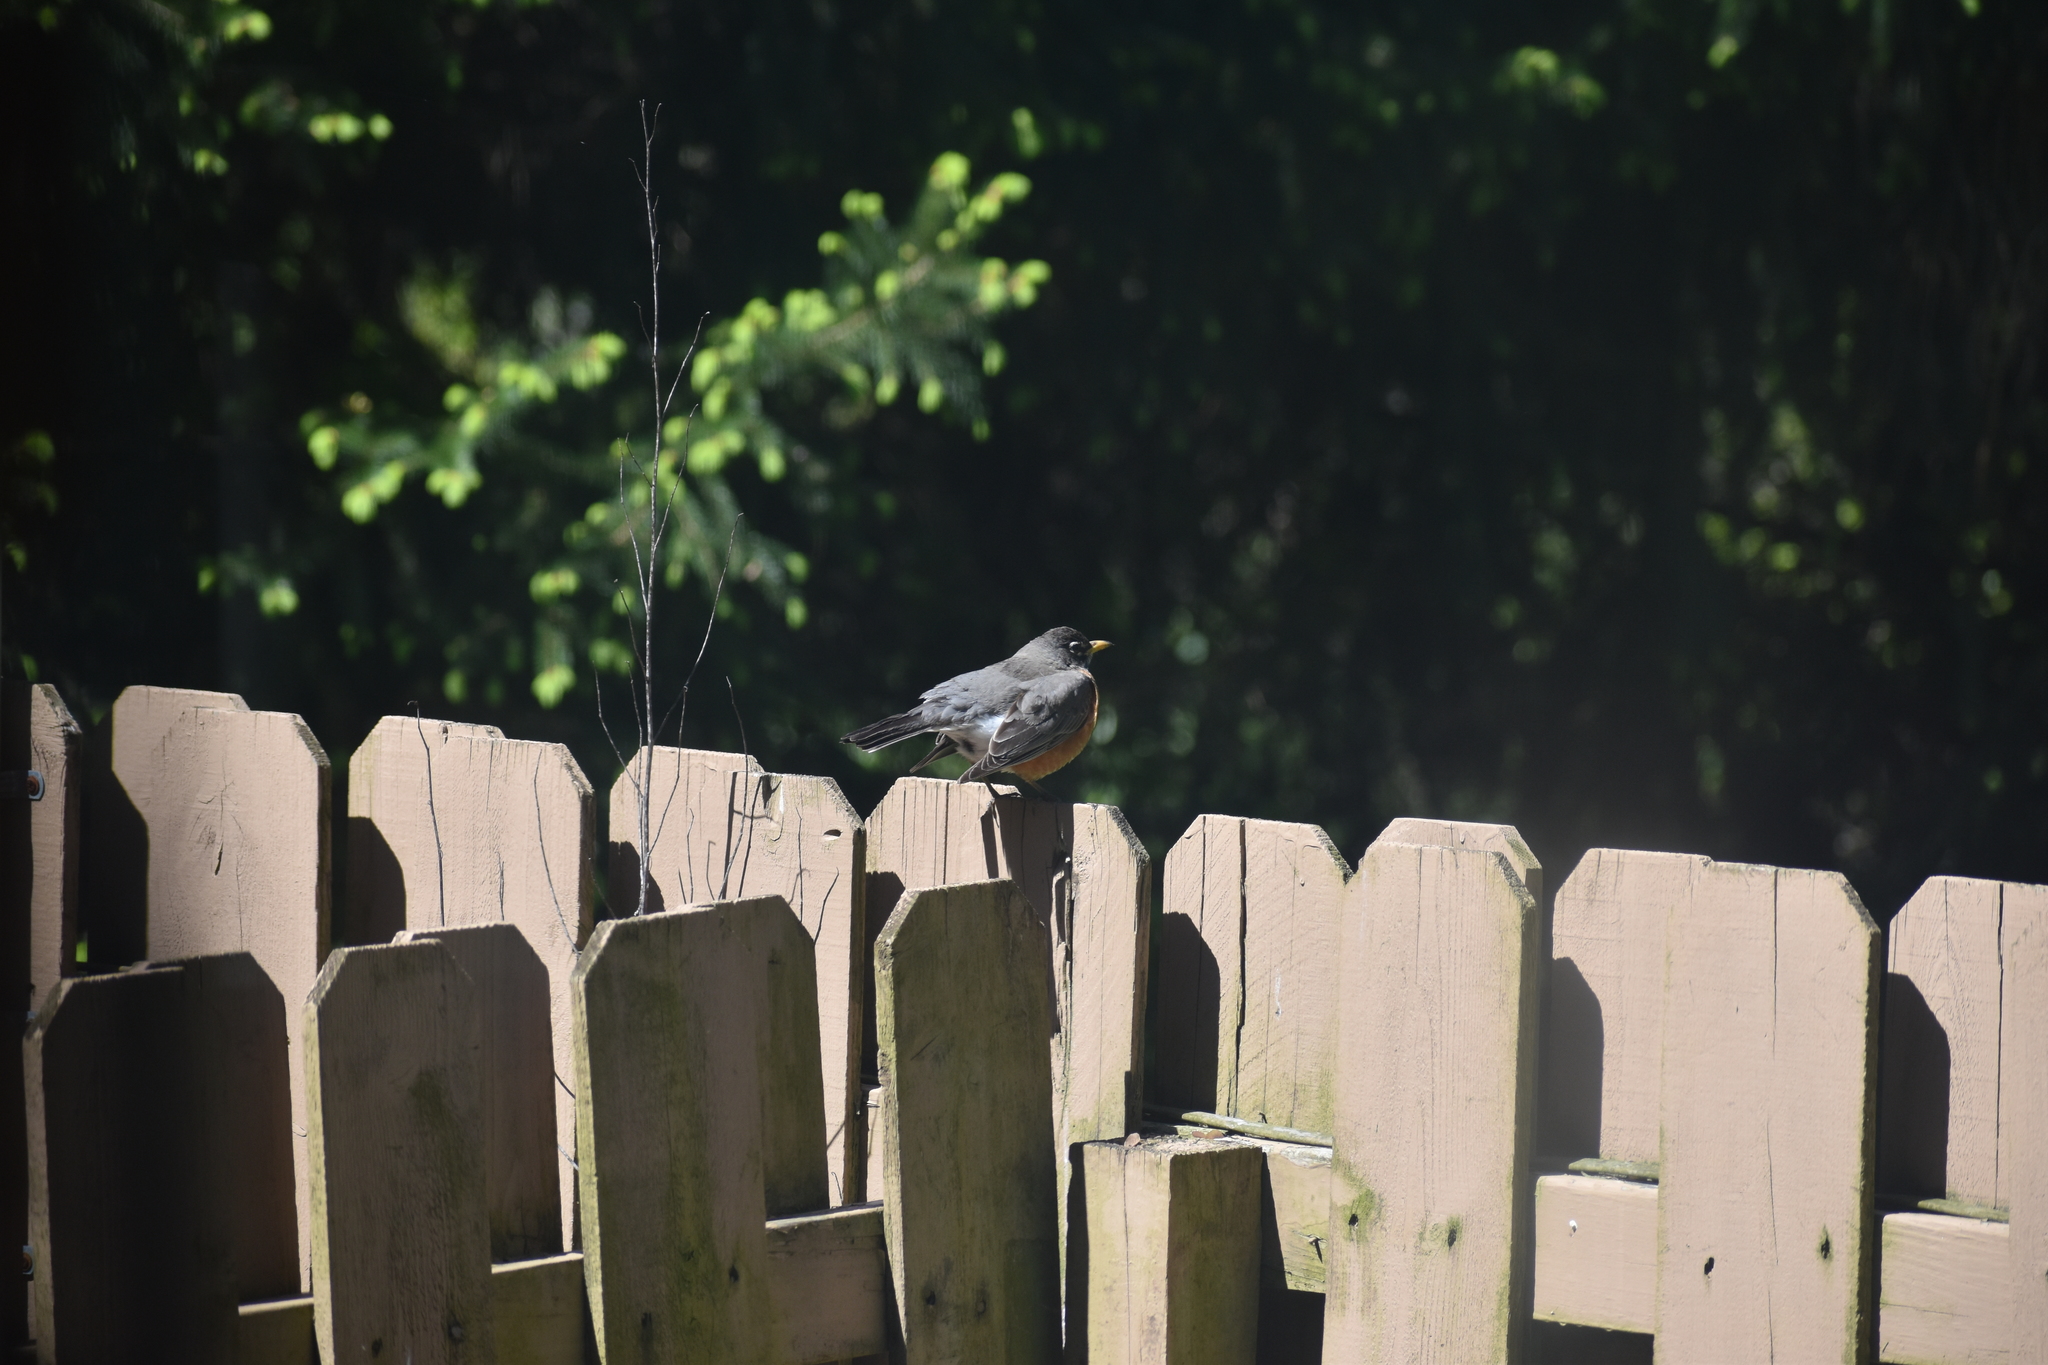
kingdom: Animalia
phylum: Chordata
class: Aves
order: Passeriformes
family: Turdidae
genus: Turdus
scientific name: Turdus migratorius
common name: American robin
